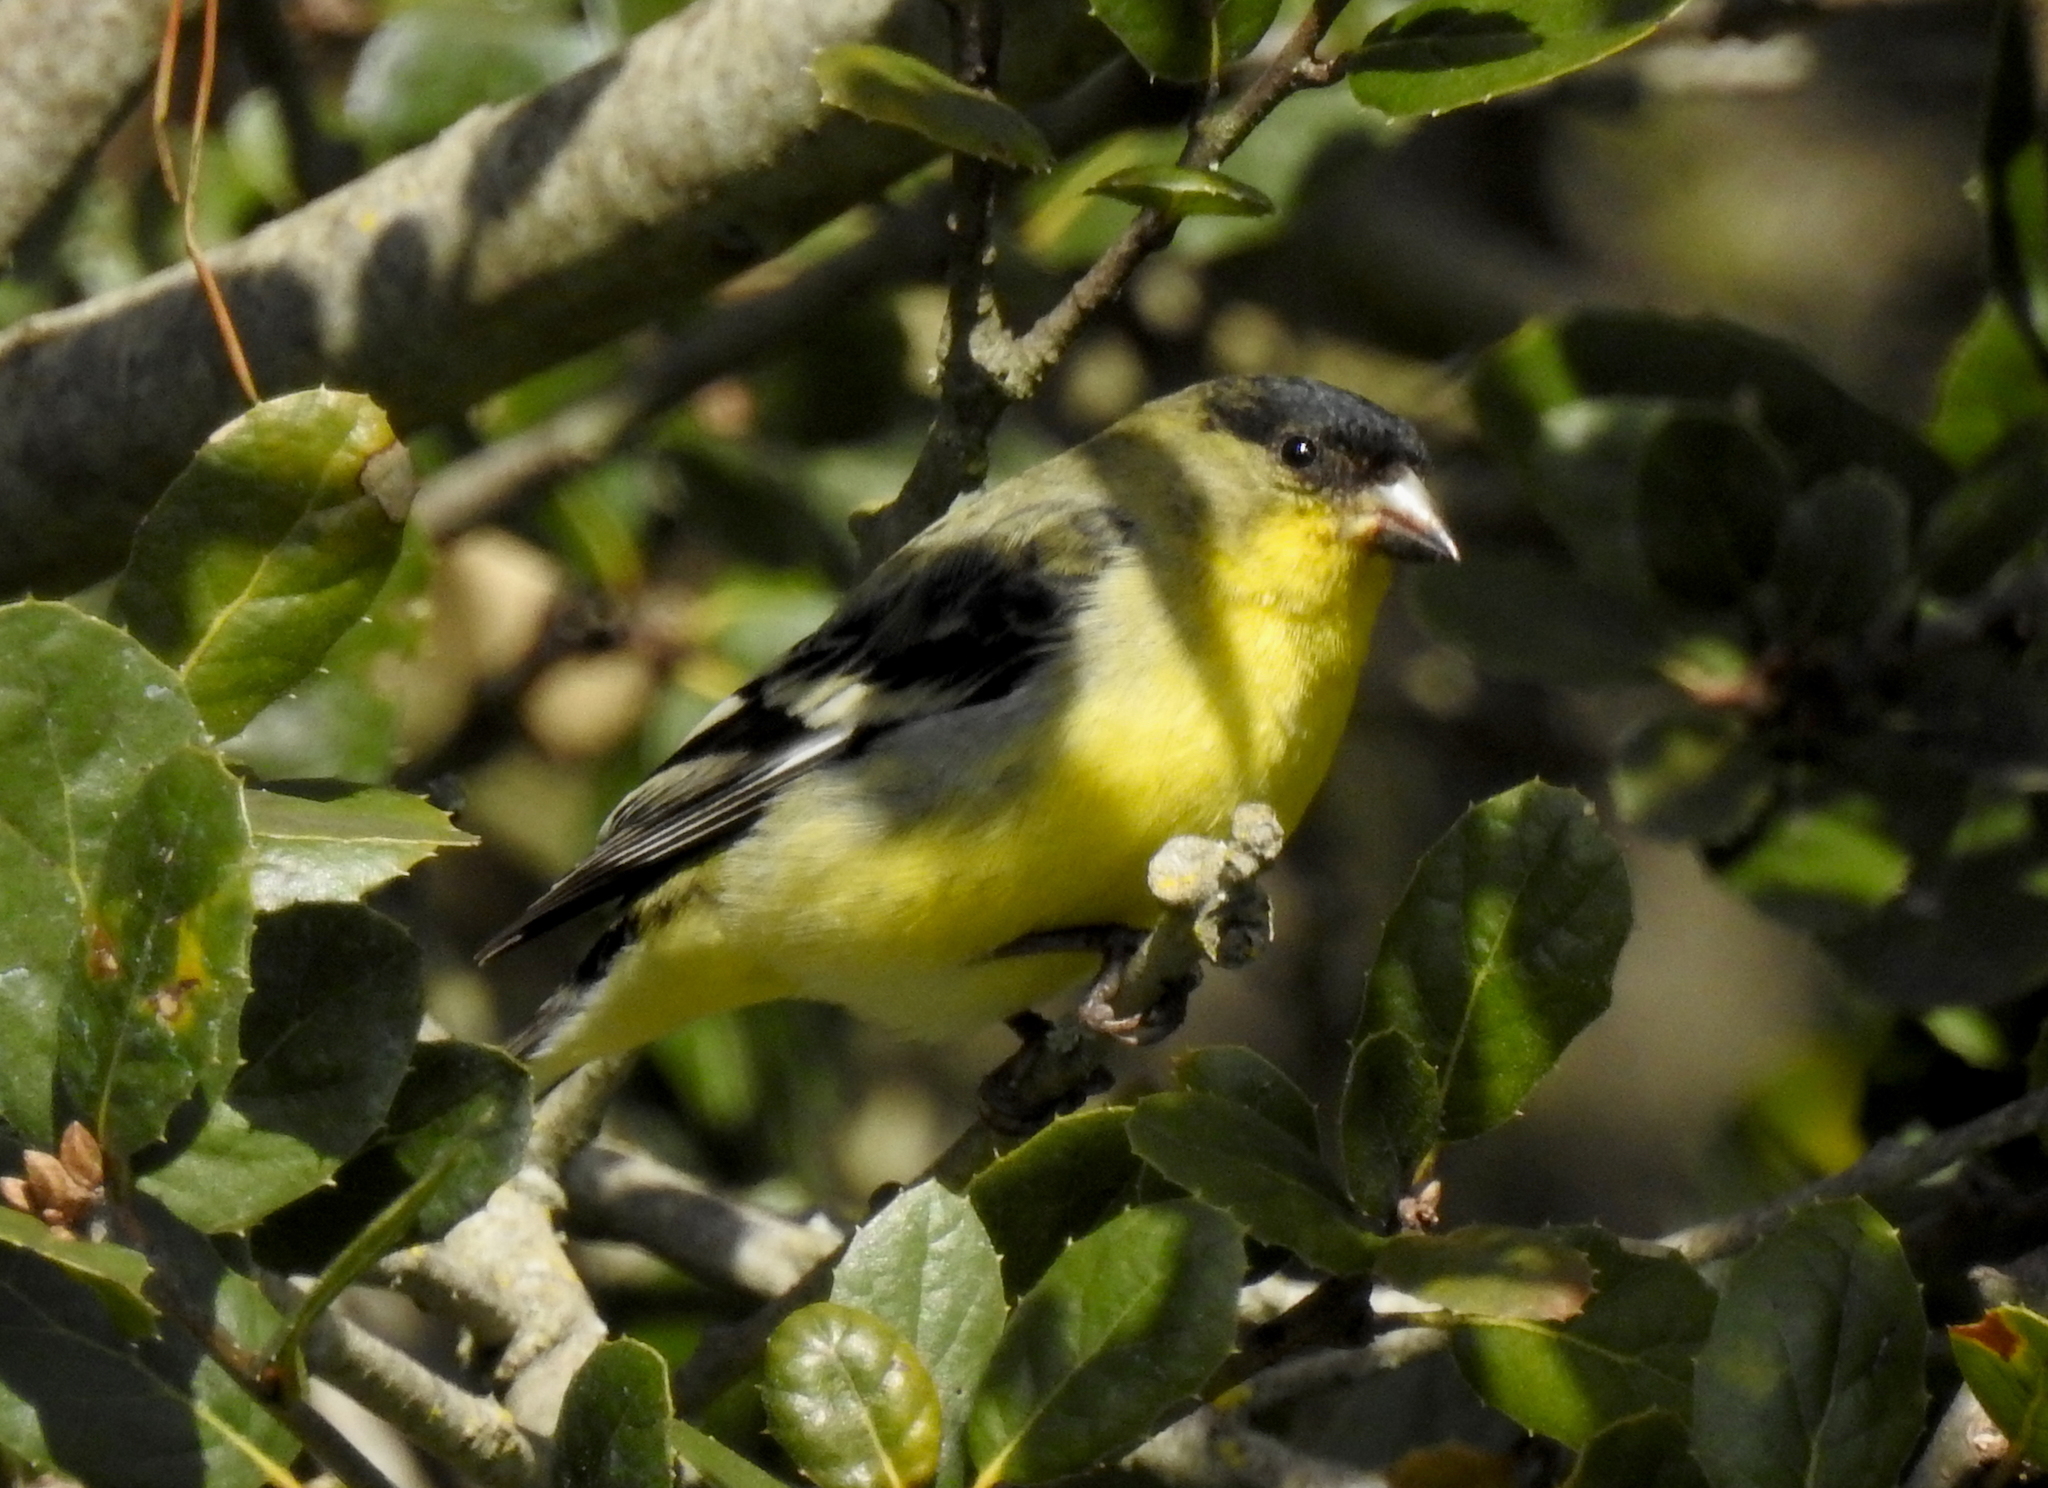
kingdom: Animalia
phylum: Chordata
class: Aves
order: Passeriformes
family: Fringillidae
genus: Spinus
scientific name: Spinus psaltria
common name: Lesser goldfinch
